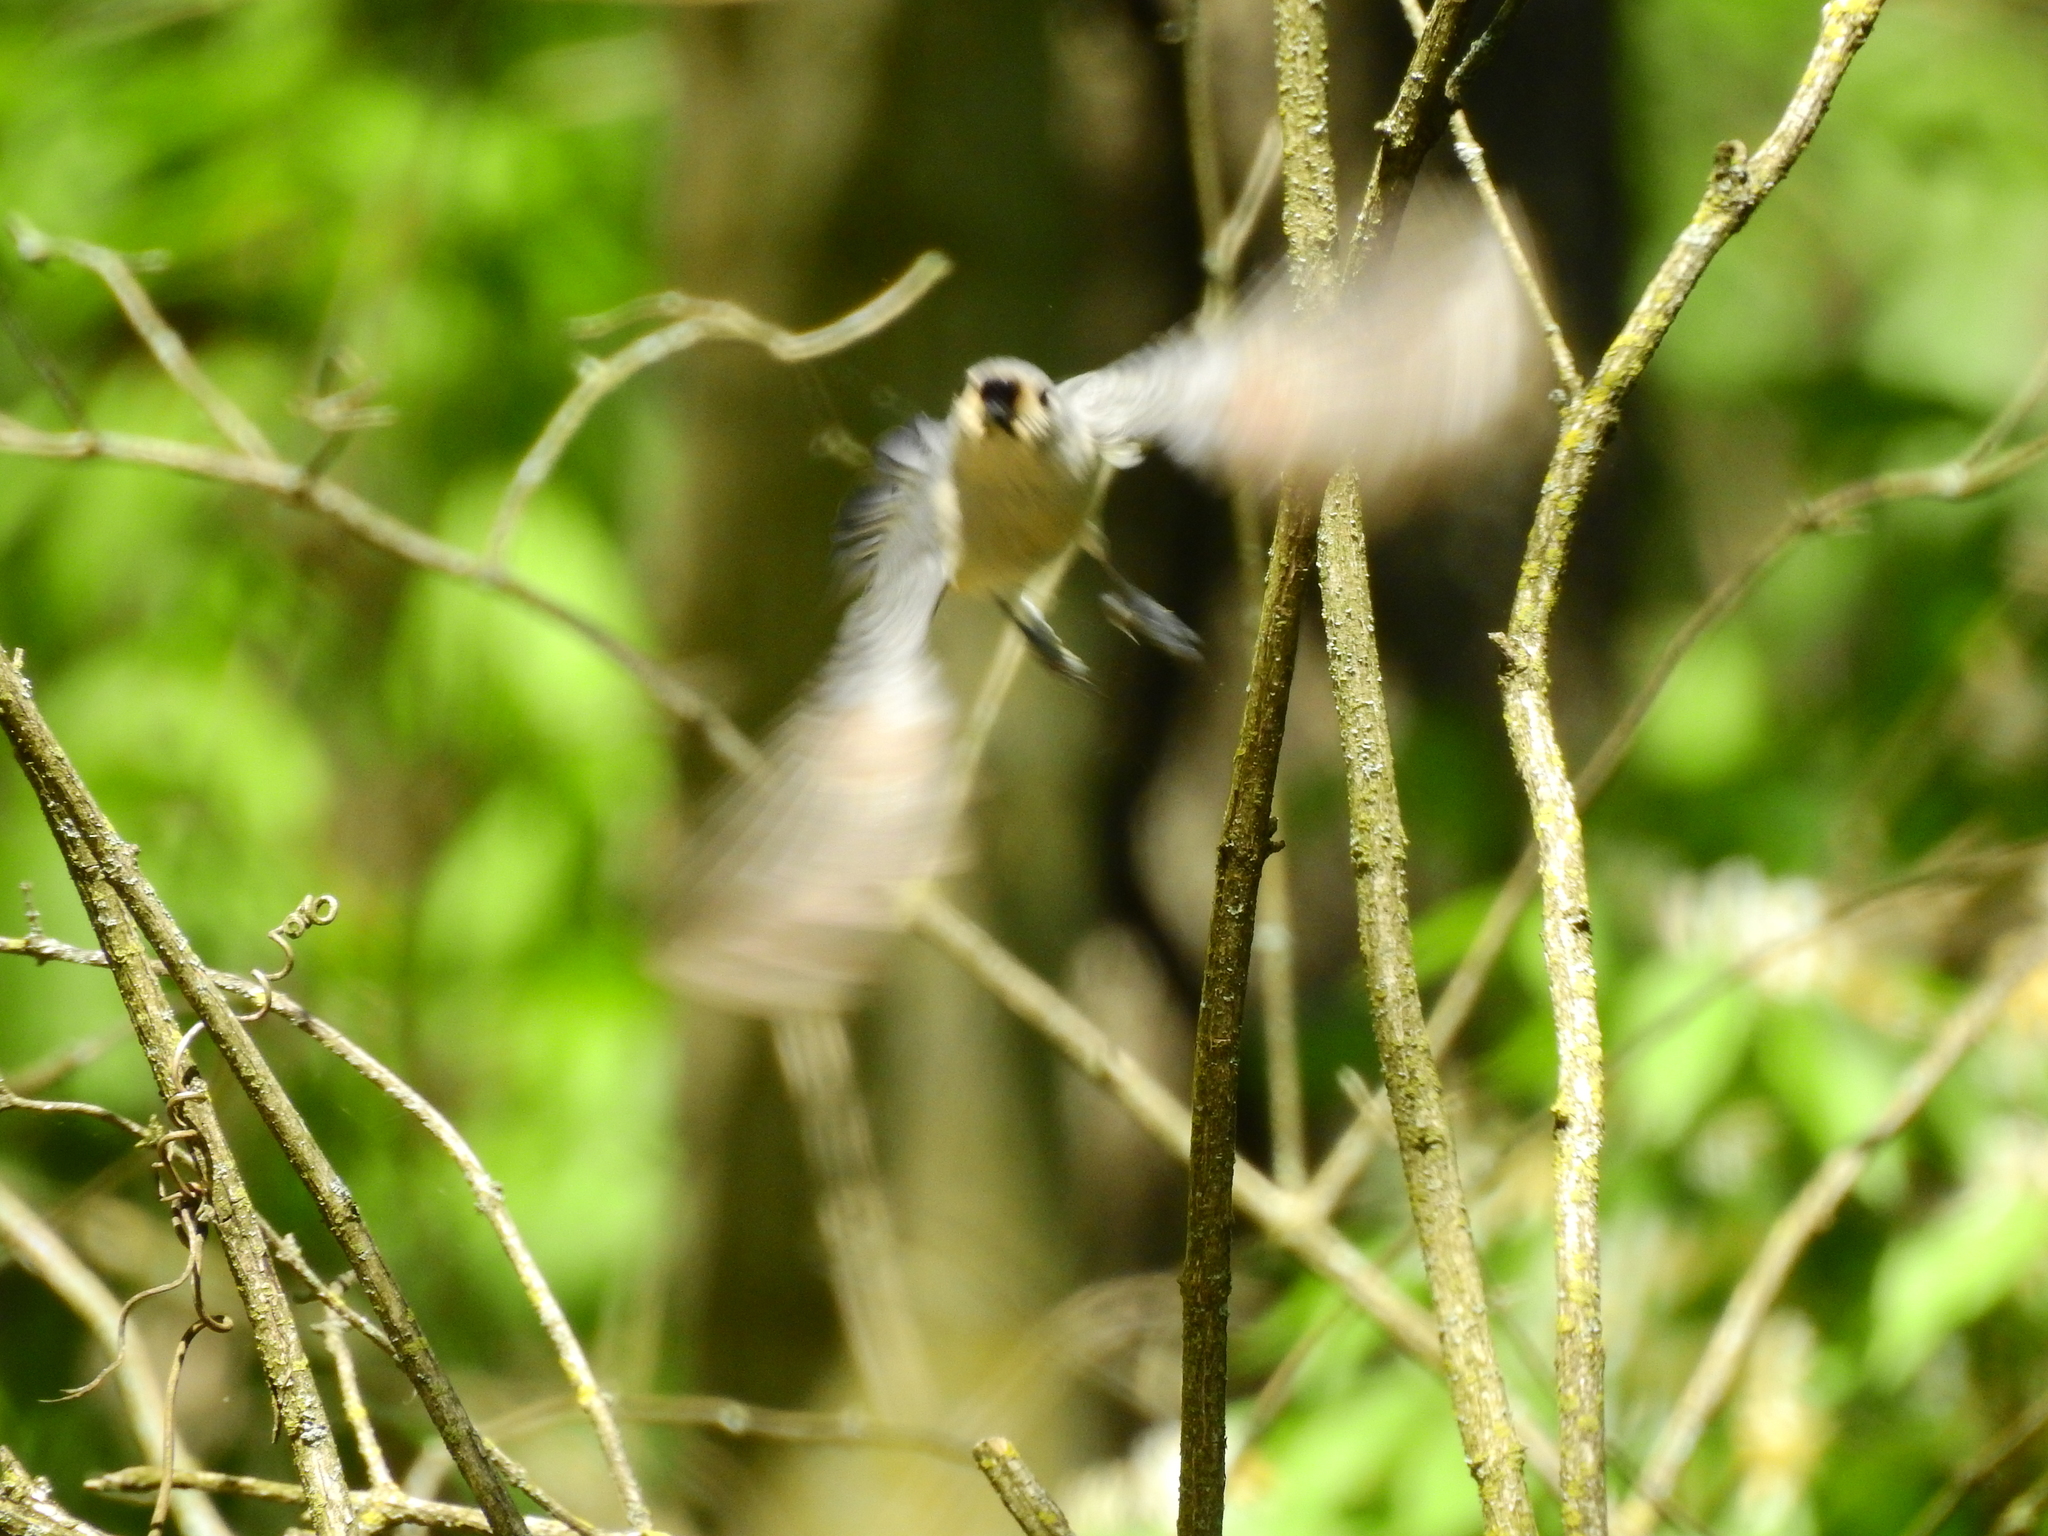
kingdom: Animalia
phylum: Chordata
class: Aves
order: Passeriformes
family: Paridae
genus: Baeolophus
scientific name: Baeolophus bicolor
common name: Tufted titmouse
